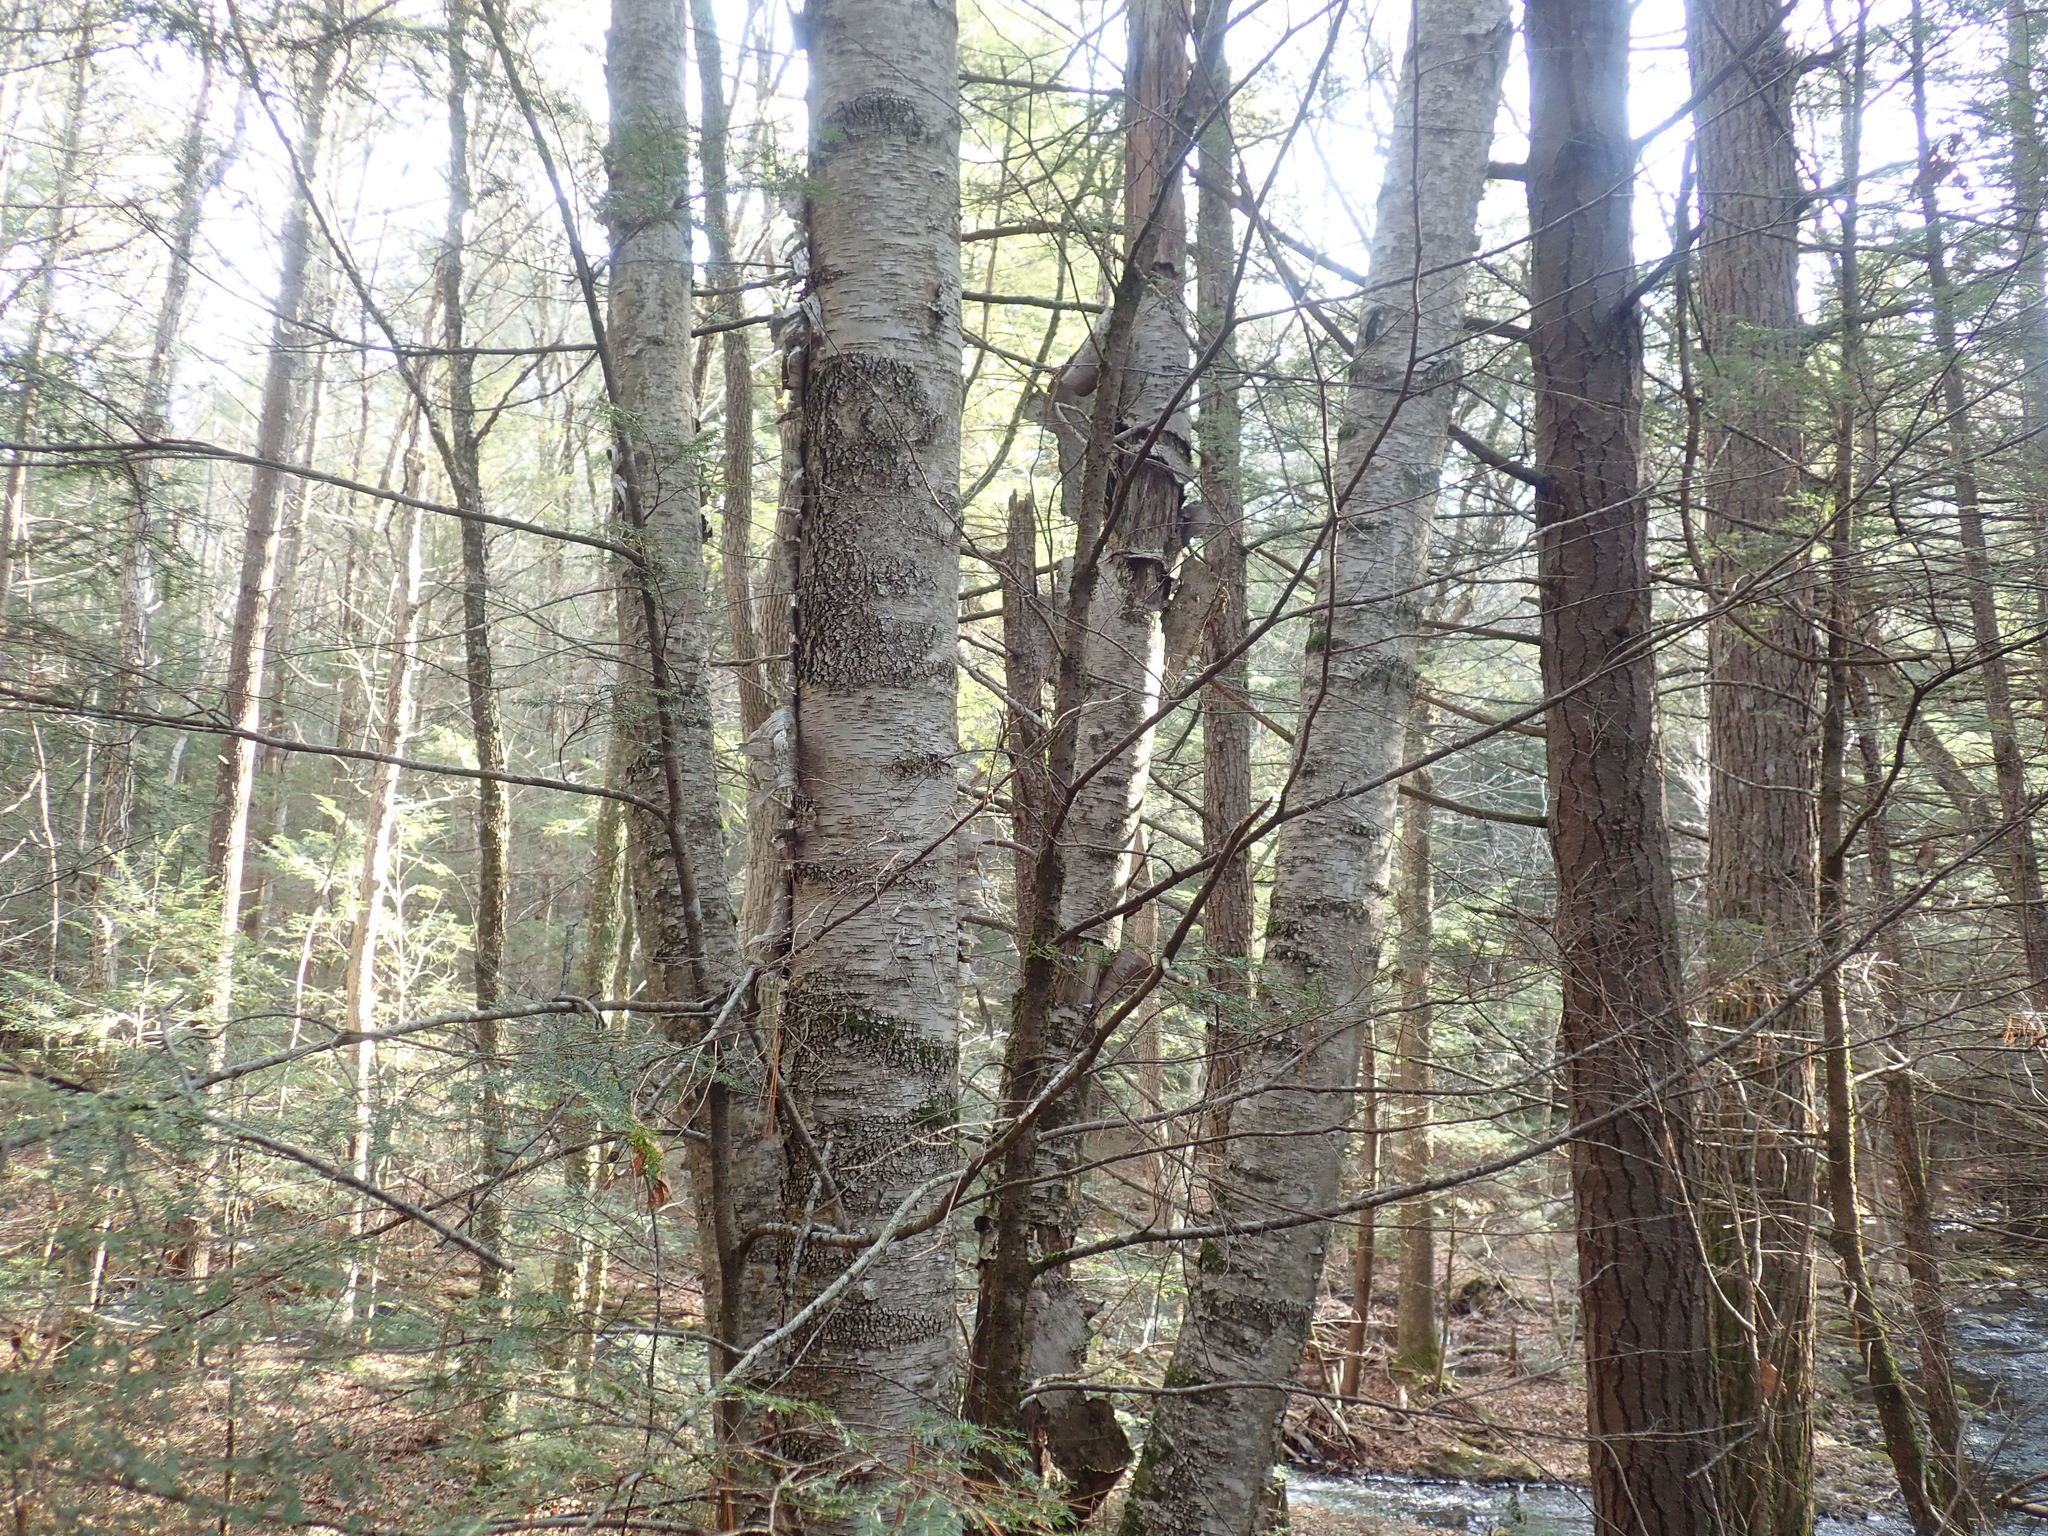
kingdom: Plantae
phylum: Tracheophyta
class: Magnoliopsida
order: Fagales
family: Betulaceae
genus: Betula
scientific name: Betula papyrifera
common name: Paper birch
